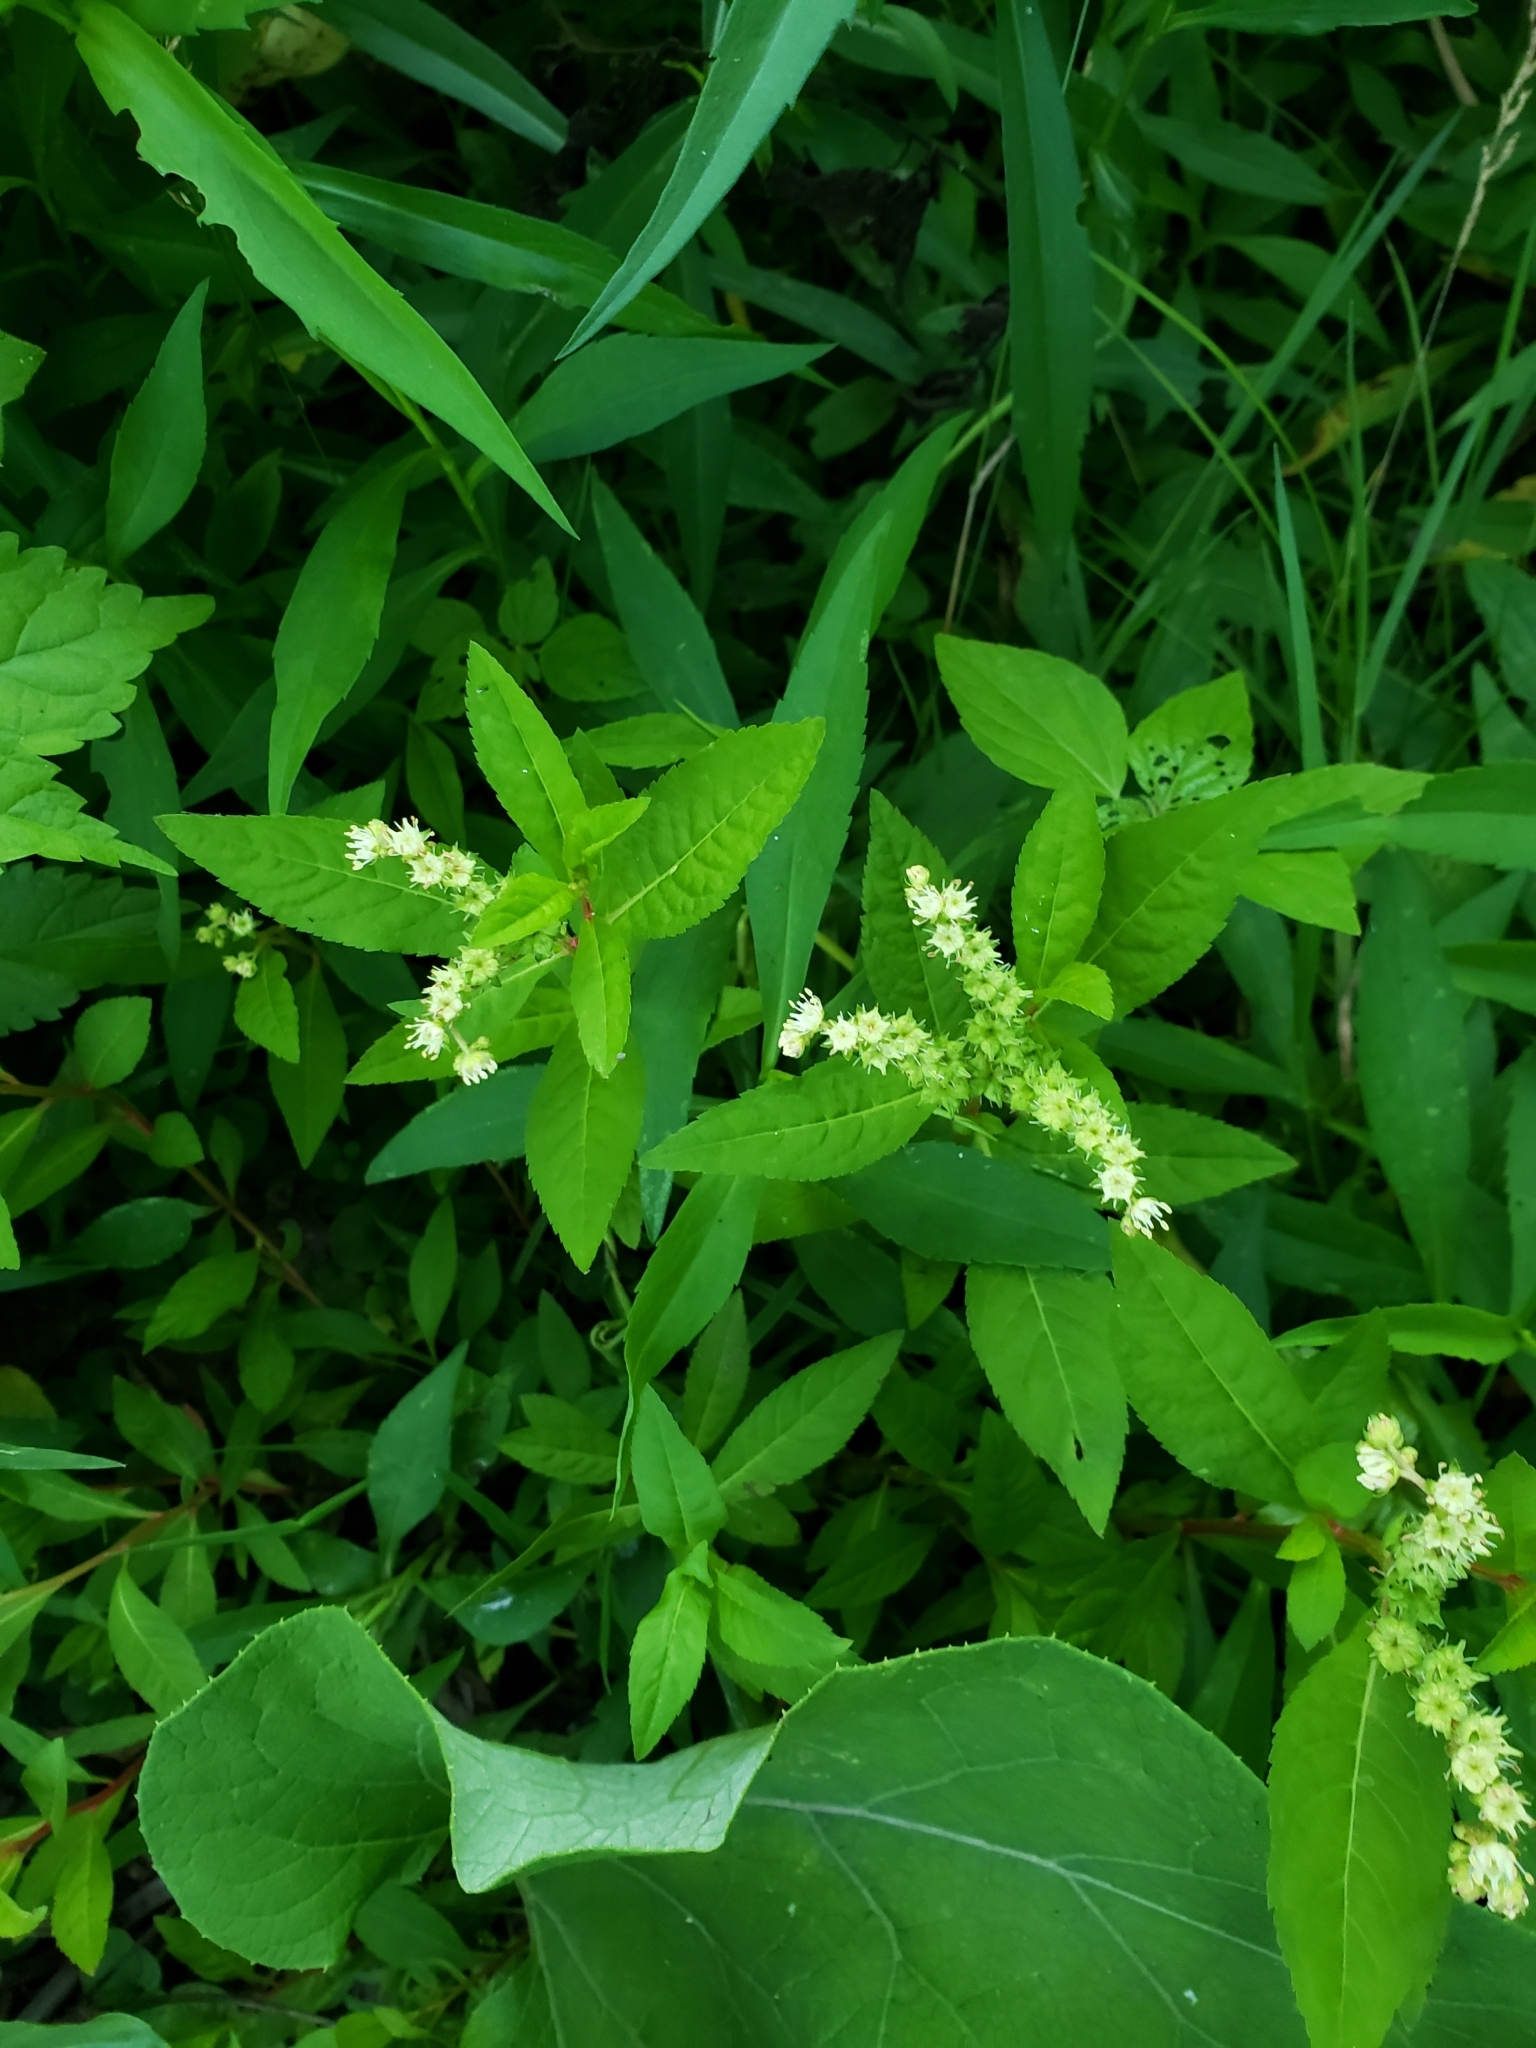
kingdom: Plantae
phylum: Tracheophyta
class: Magnoliopsida
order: Saxifragales
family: Penthoraceae
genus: Penthorum
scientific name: Penthorum sedoides
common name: Ditch stonecrop
